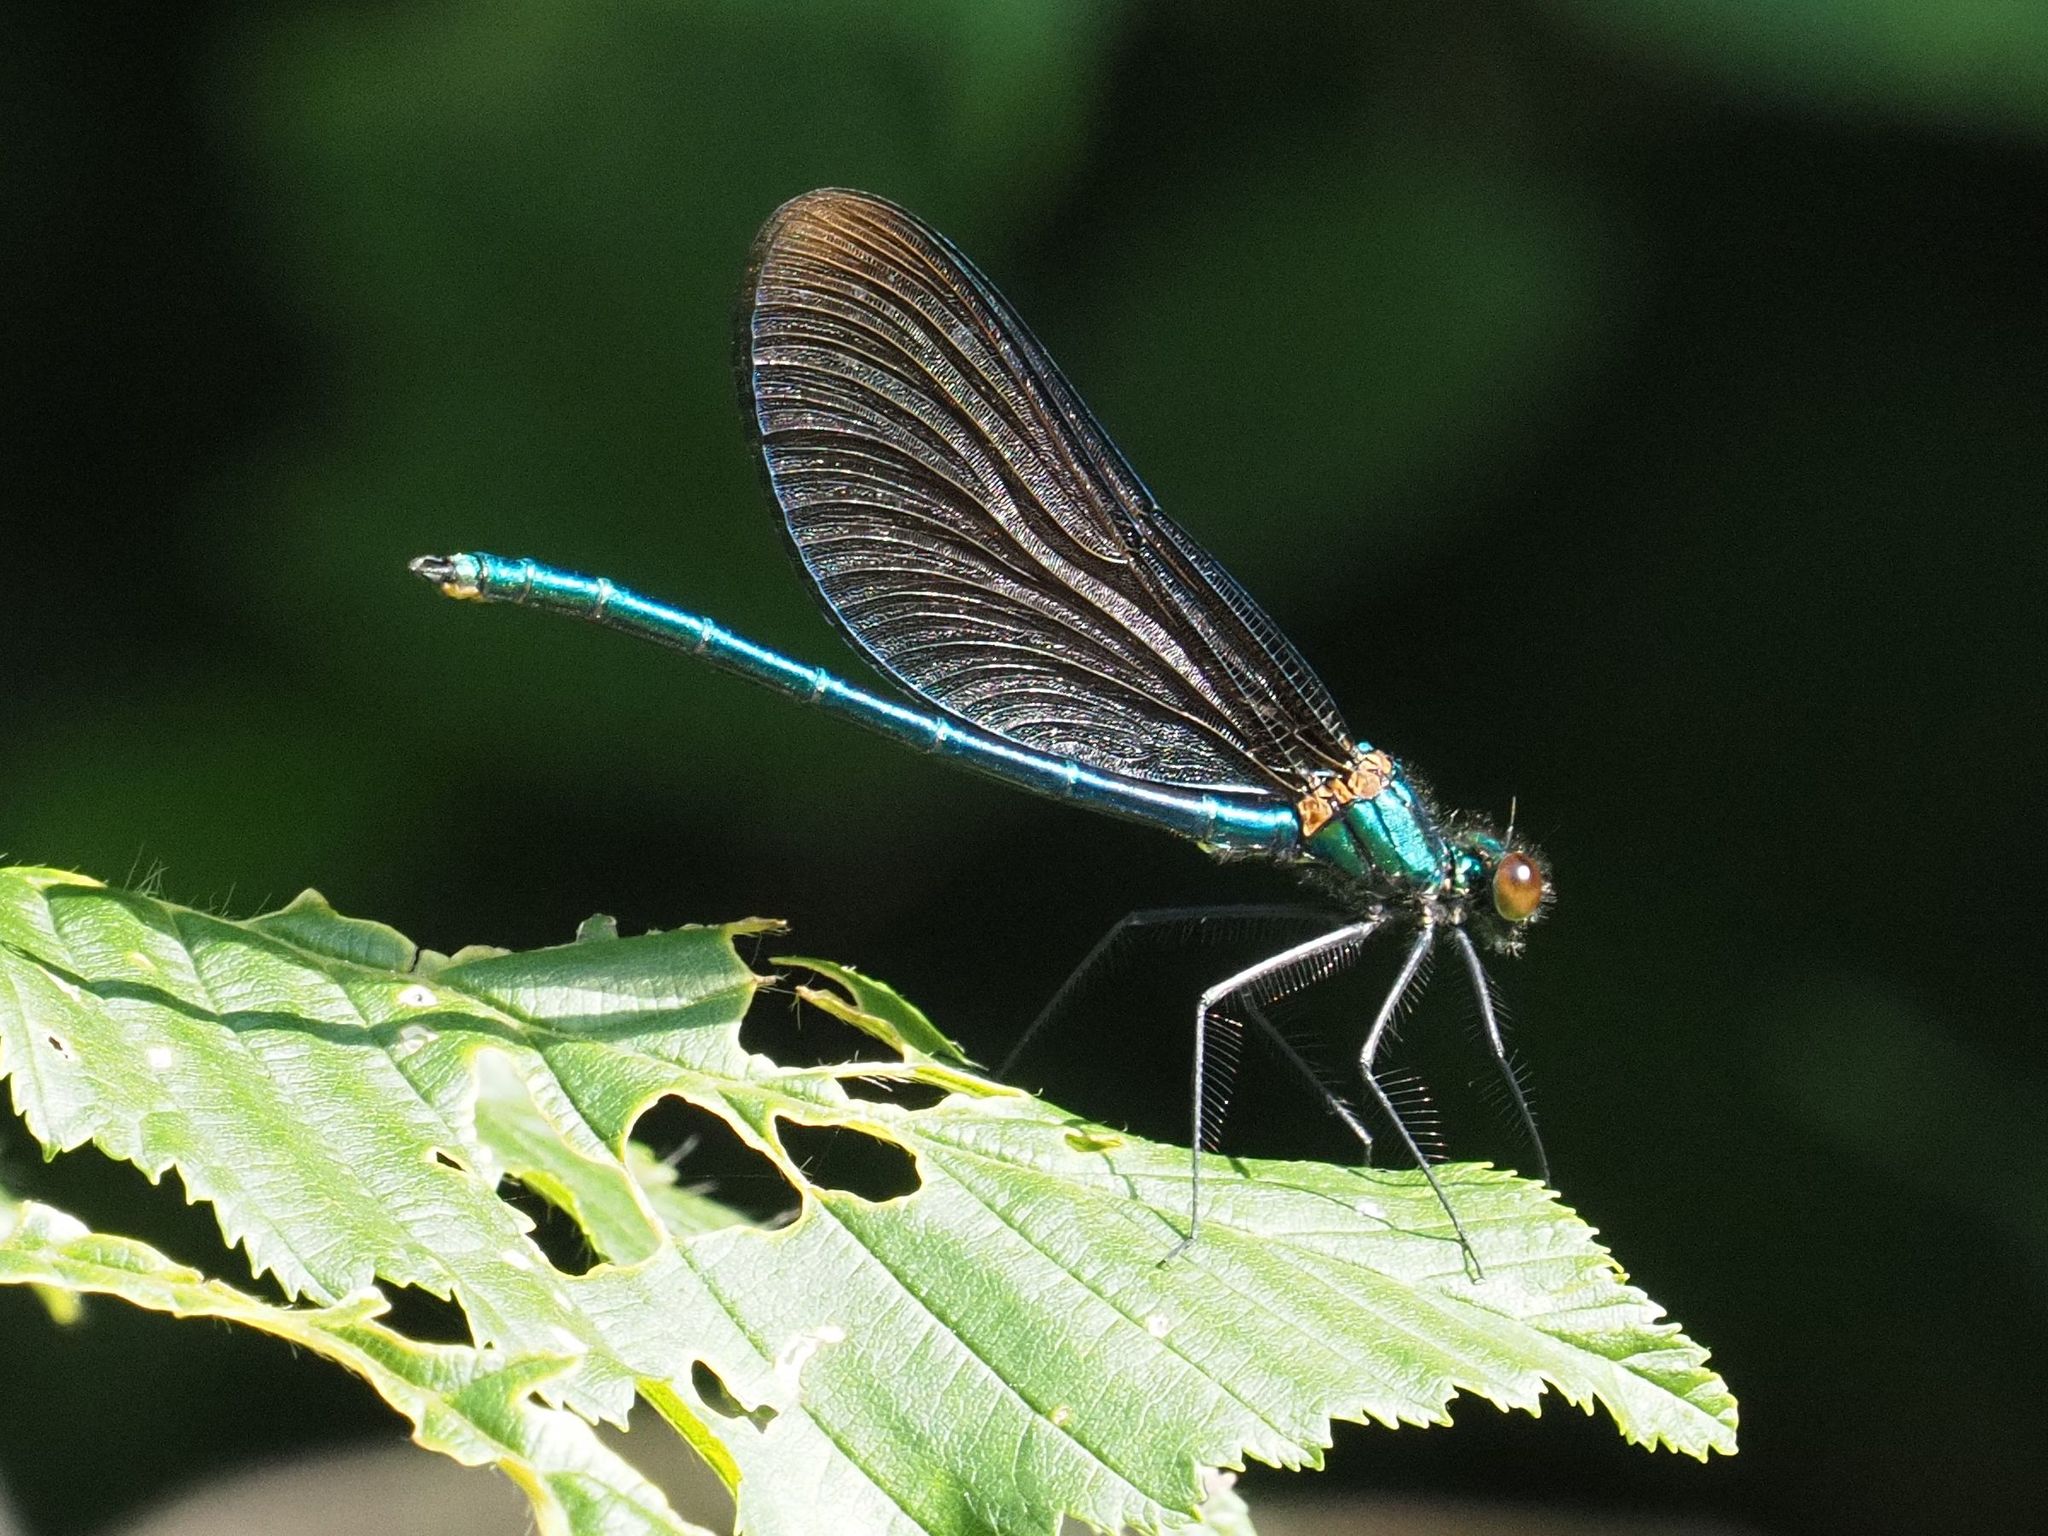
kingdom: Animalia
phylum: Arthropoda
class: Insecta
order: Odonata
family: Calopterygidae
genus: Calopteryx
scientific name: Calopteryx virgo
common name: Beautiful demoiselle
